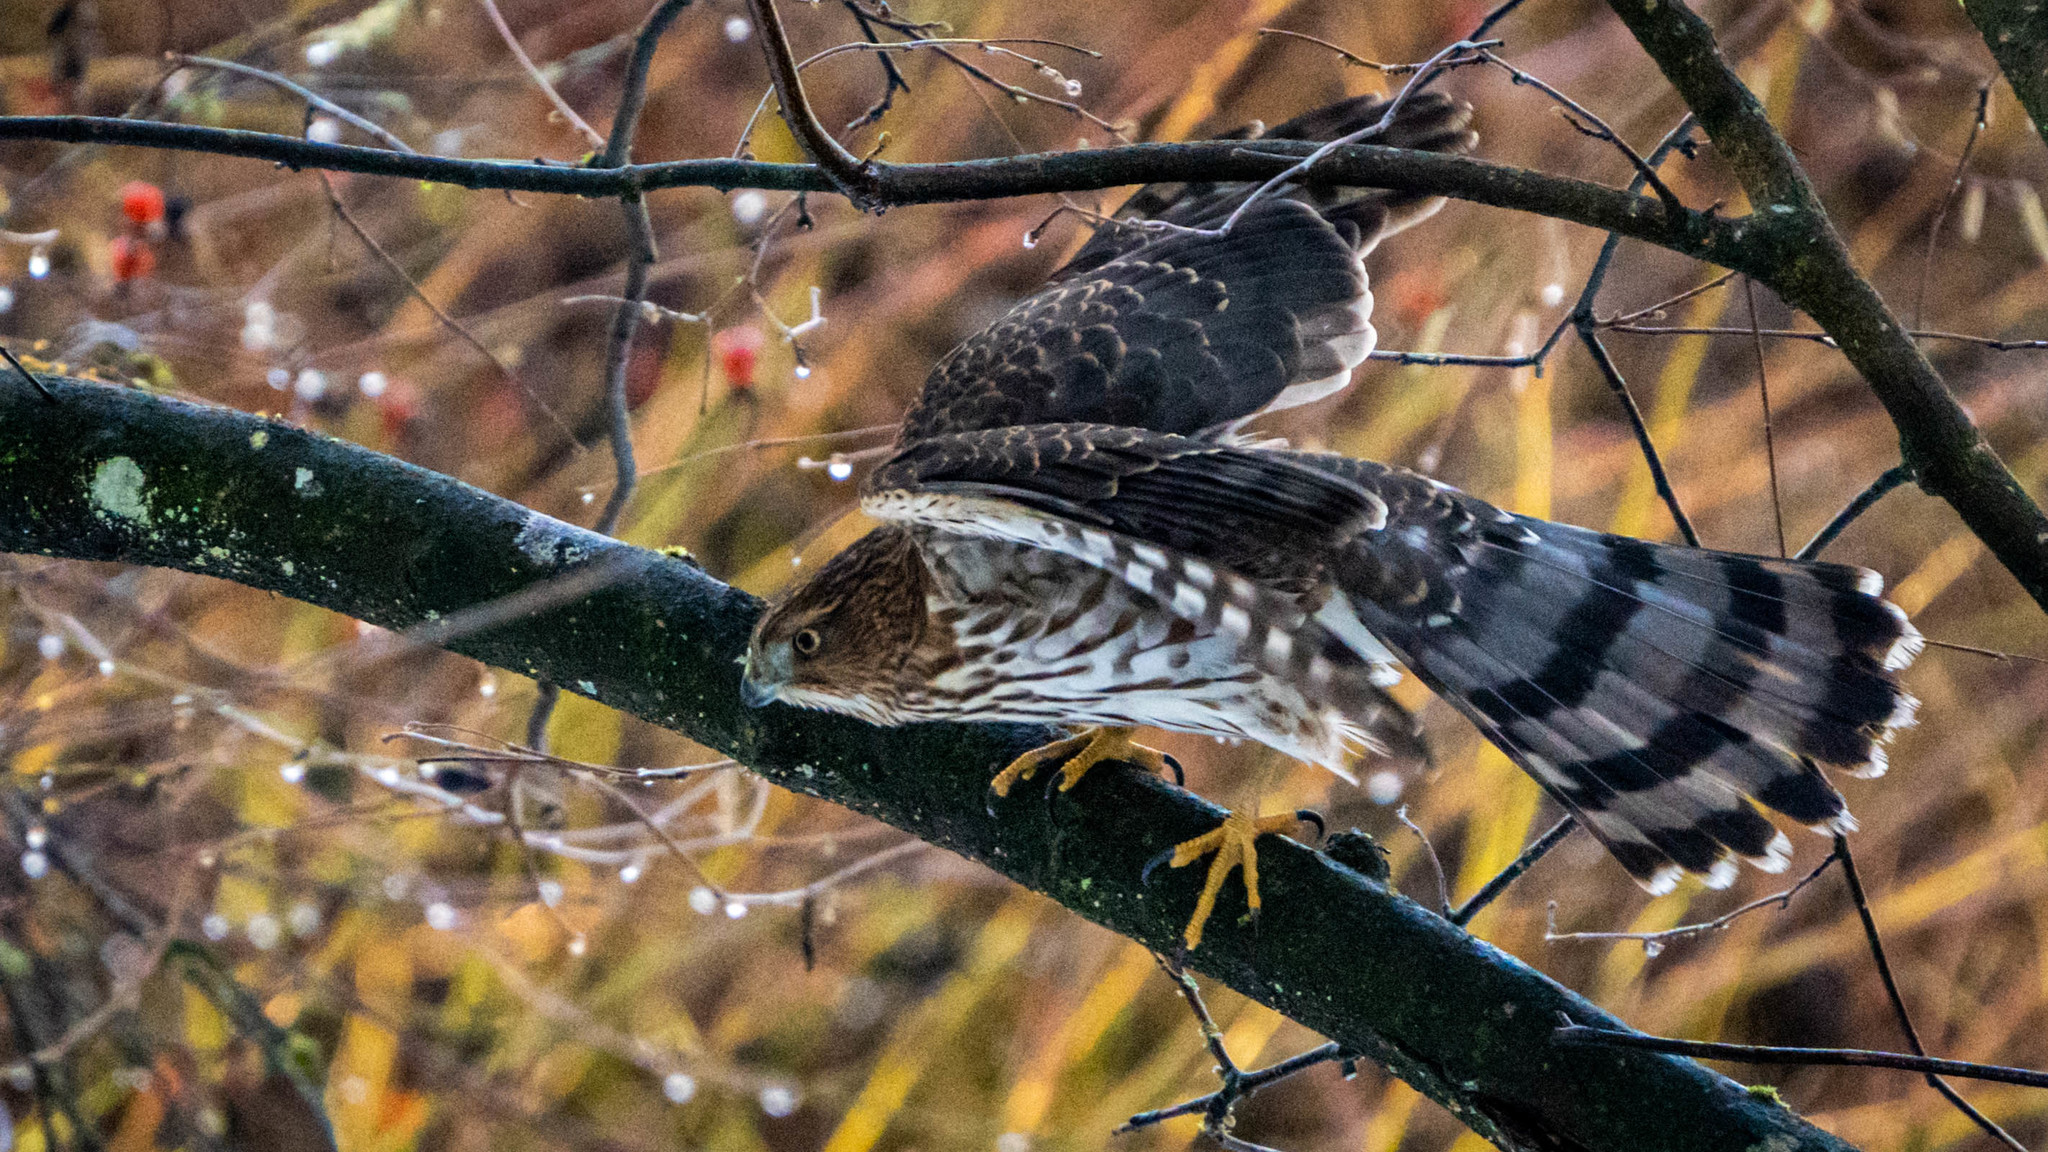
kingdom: Animalia
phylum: Chordata
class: Aves
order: Accipitriformes
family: Accipitridae
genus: Accipiter
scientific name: Accipiter cooperii
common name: Cooper's hawk
